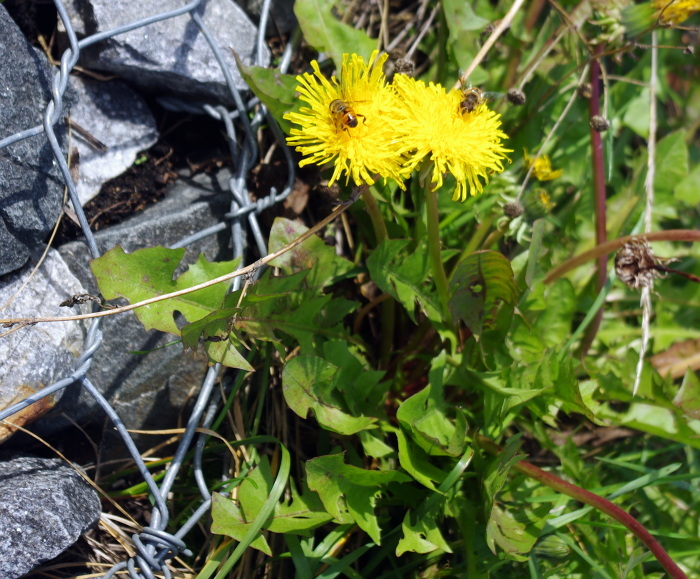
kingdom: Plantae
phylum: Tracheophyta
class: Magnoliopsida
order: Asterales
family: Asteraceae
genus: Taraxacum
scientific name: Taraxacum officinale
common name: Common dandelion
